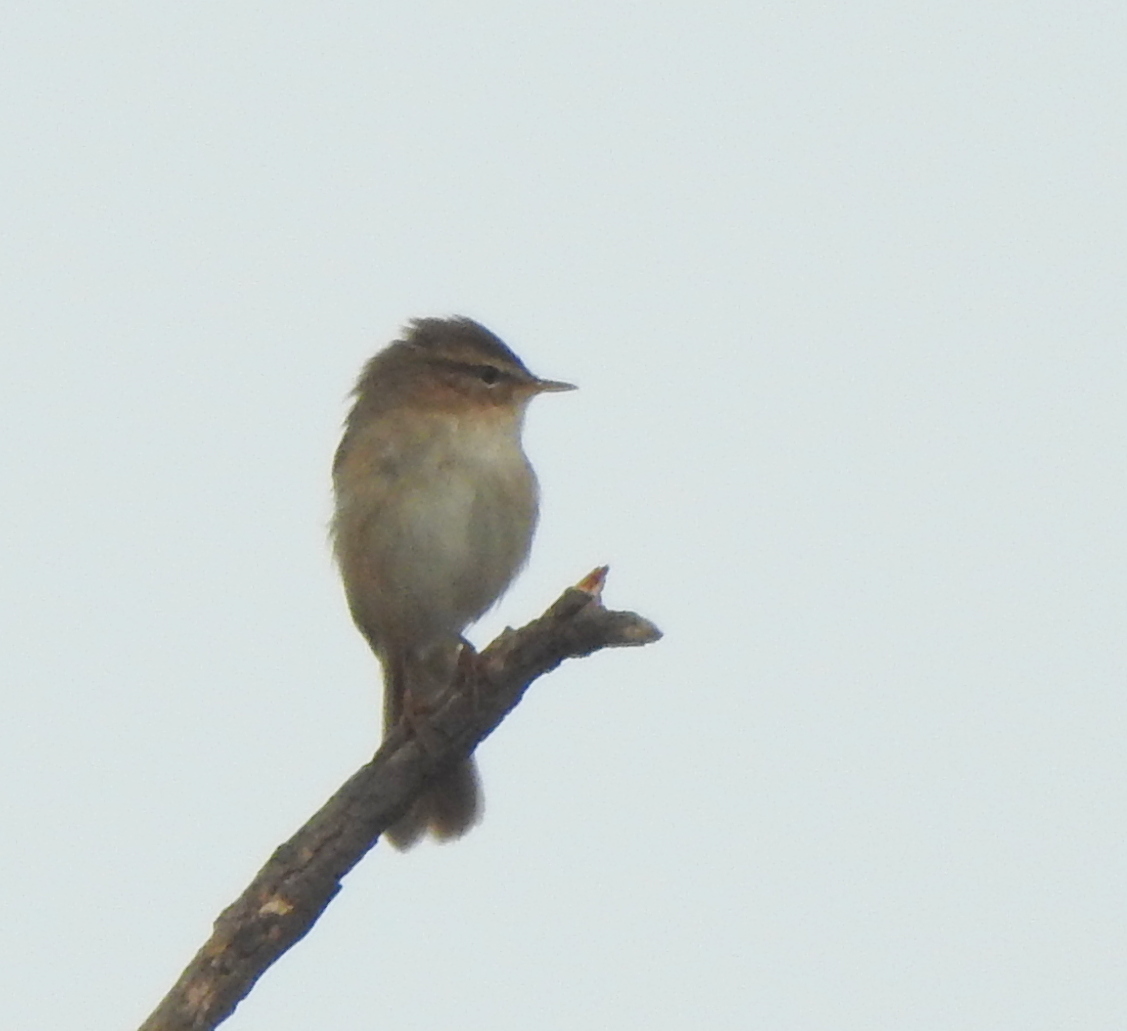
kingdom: Animalia
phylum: Chordata
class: Aves
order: Passeriformes
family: Phylloscopidae
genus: Phylloscopus
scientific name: Phylloscopus fuscatus
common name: Dusky warbler
